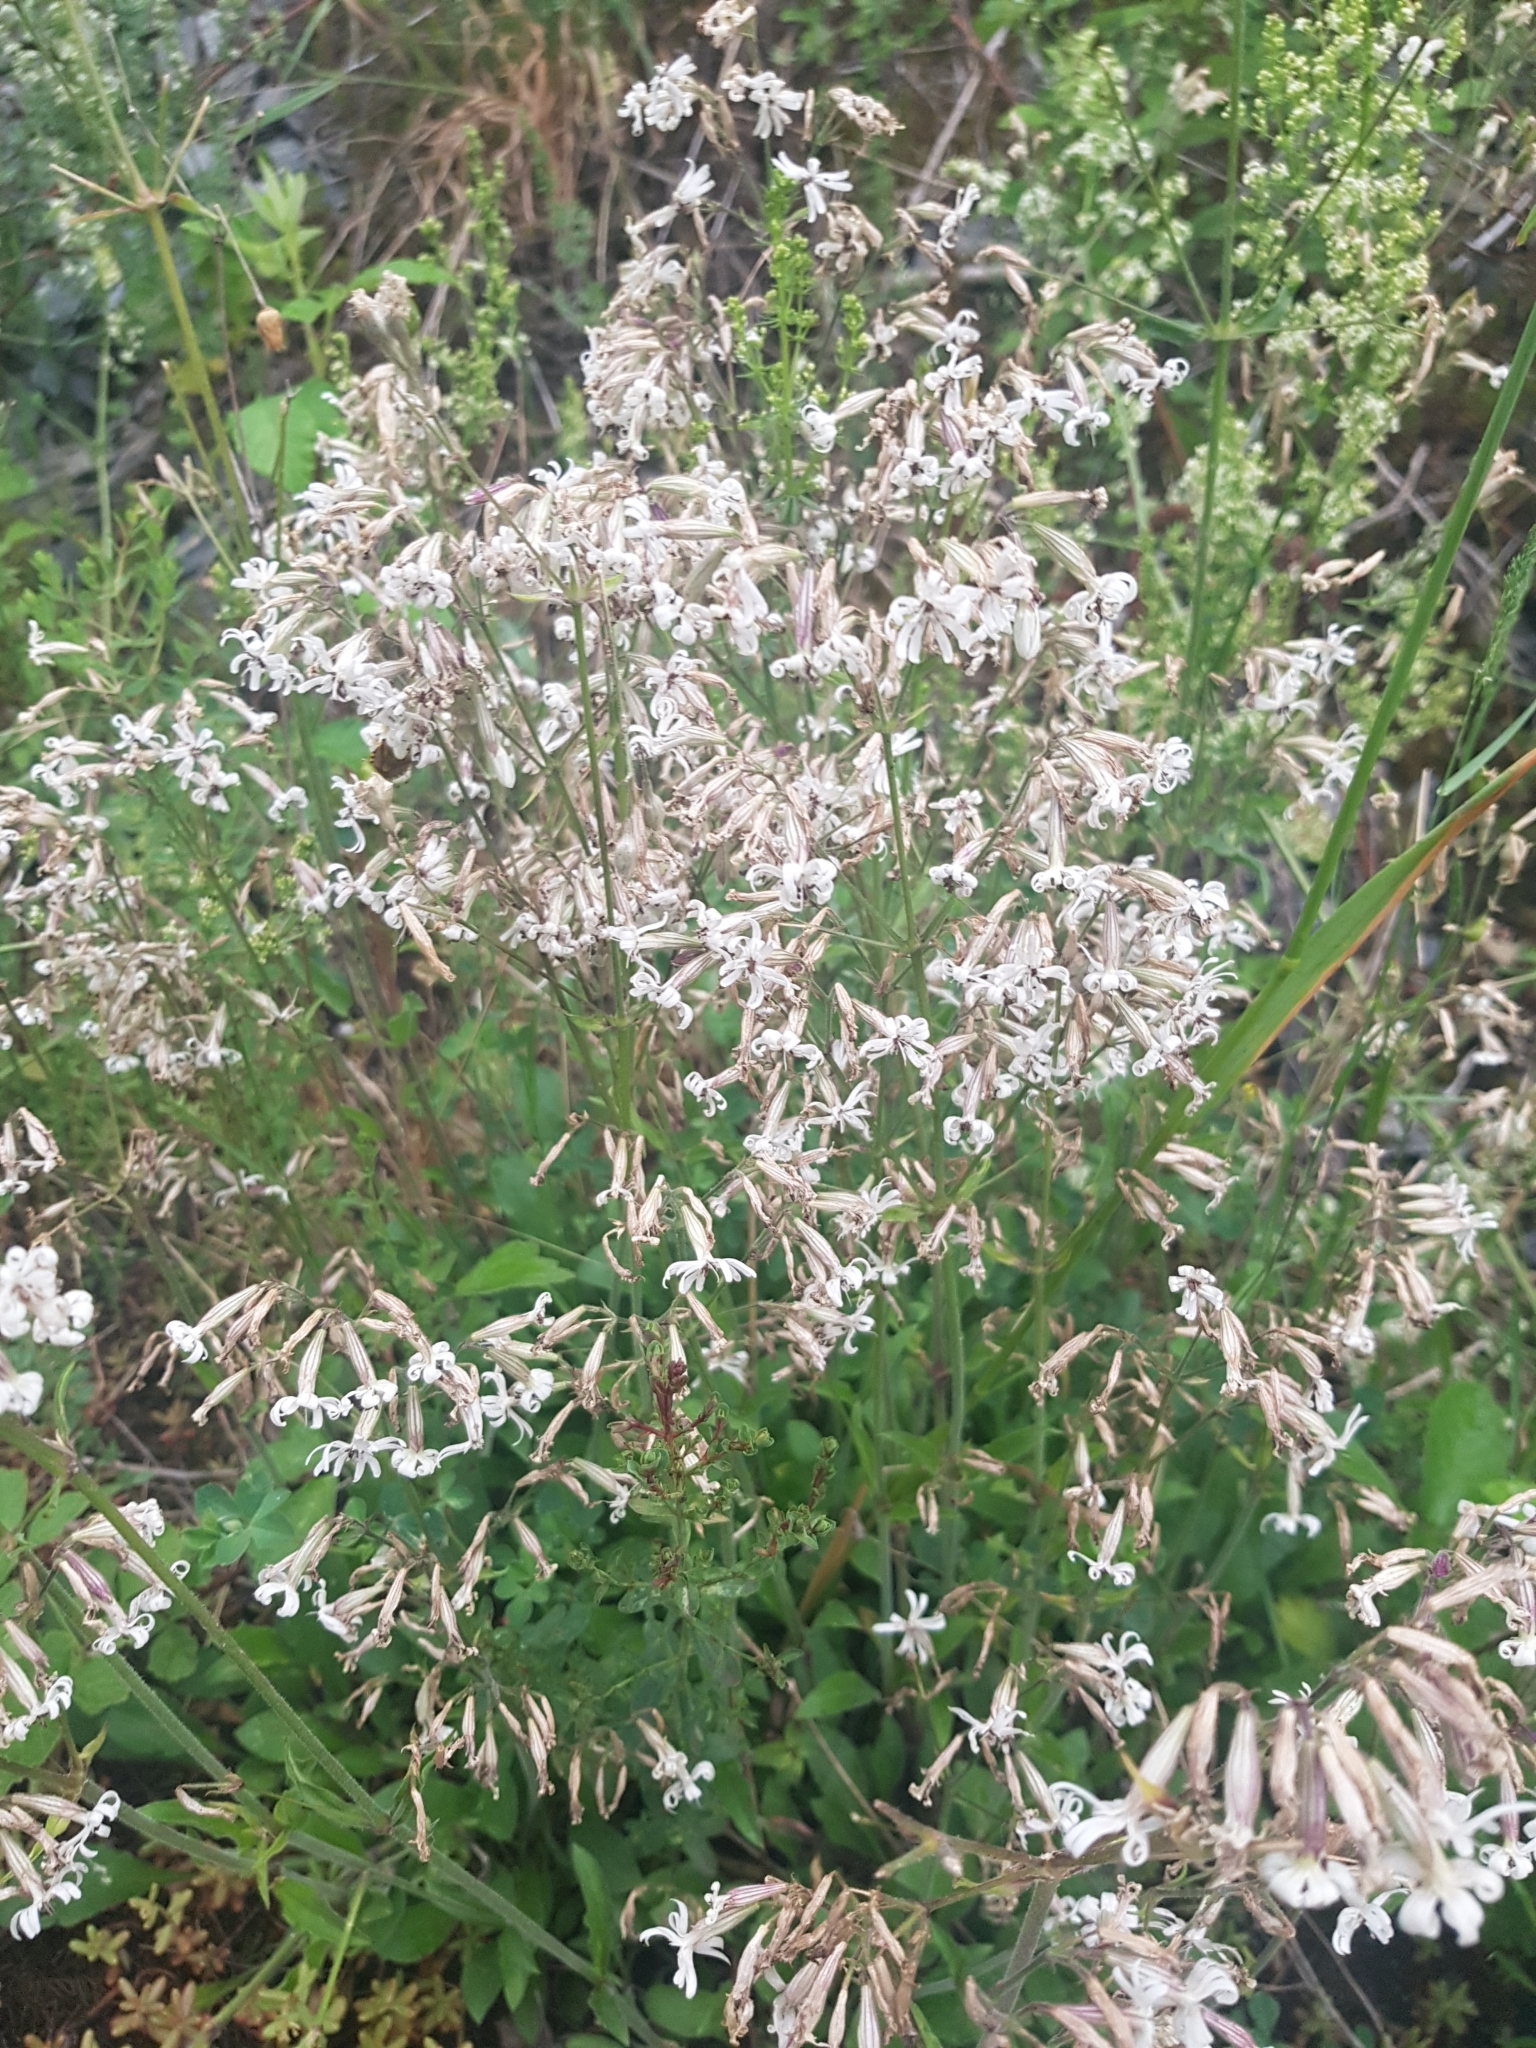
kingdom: Plantae
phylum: Tracheophyta
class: Magnoliopsida
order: Caryophyllales
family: Caryophyllaceae
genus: Silene
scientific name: Silene nutans
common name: Nottingham catchfly
